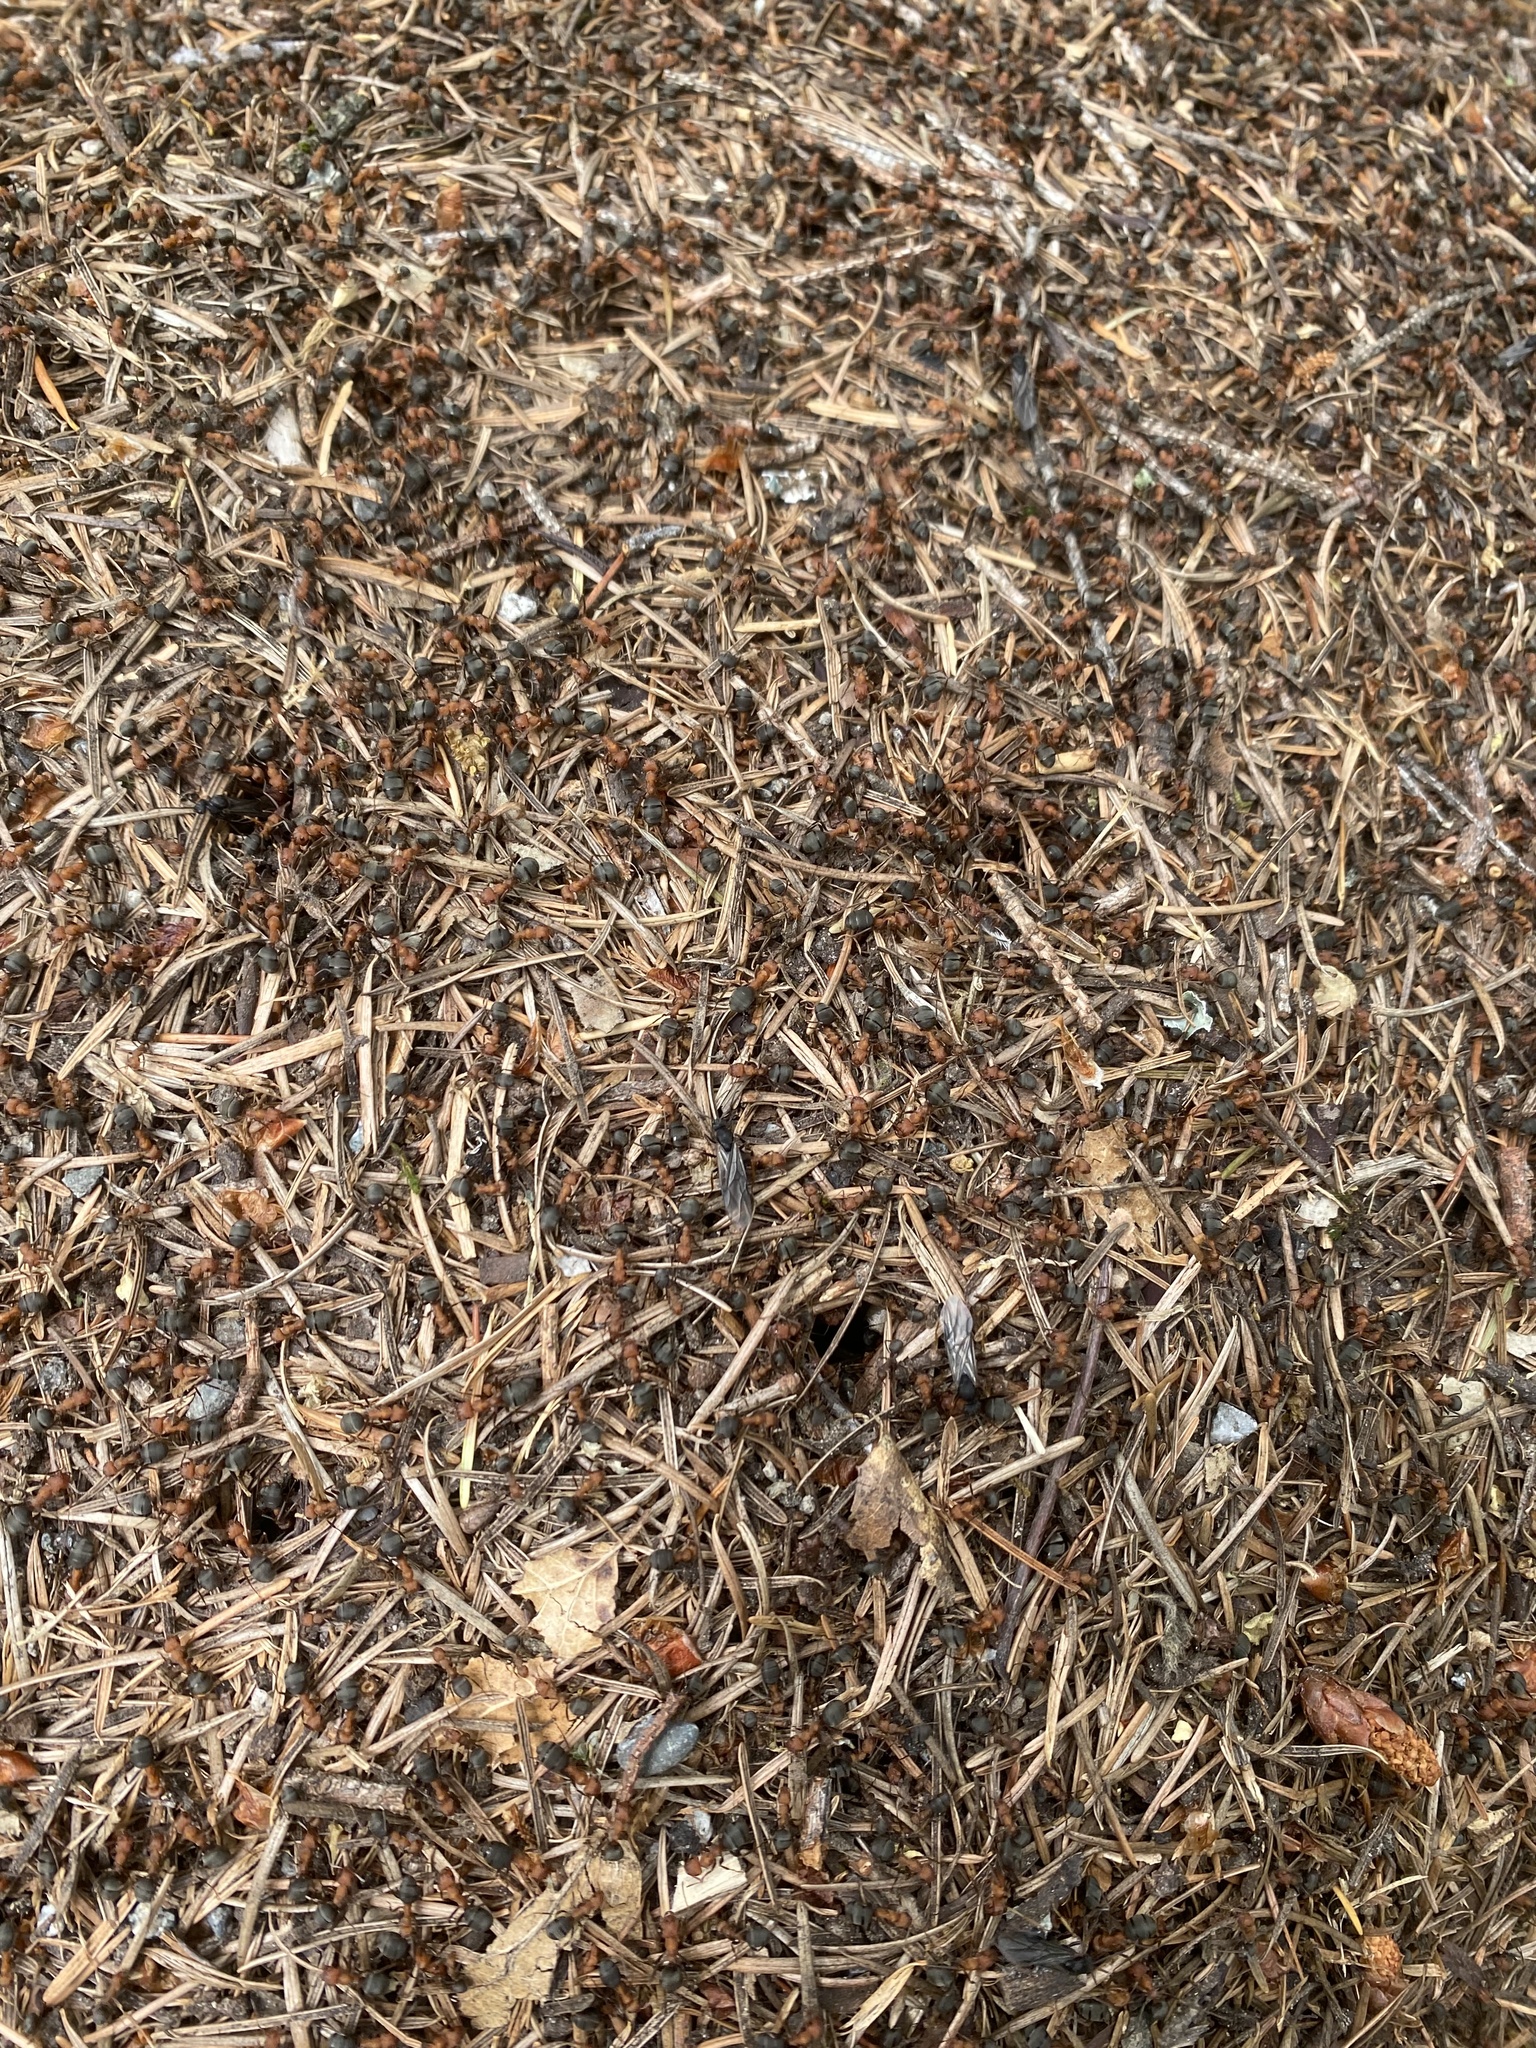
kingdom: Animalia
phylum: Arthropoda
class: Insecta
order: Hymenoptera
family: Formicidae
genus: Formica
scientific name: Formica integroides
